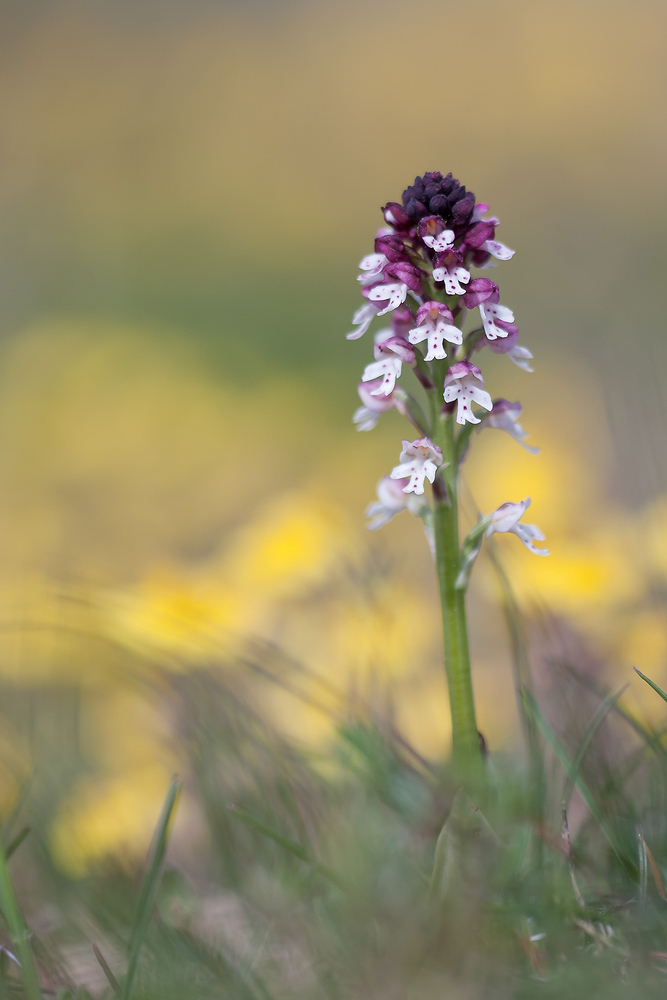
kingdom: Plantae
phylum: Tracheophyta
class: Liliopsida
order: Asparagales
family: Orchidaceae
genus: Neotinea
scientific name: Neotinea ustulata
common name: Burnt orchid
